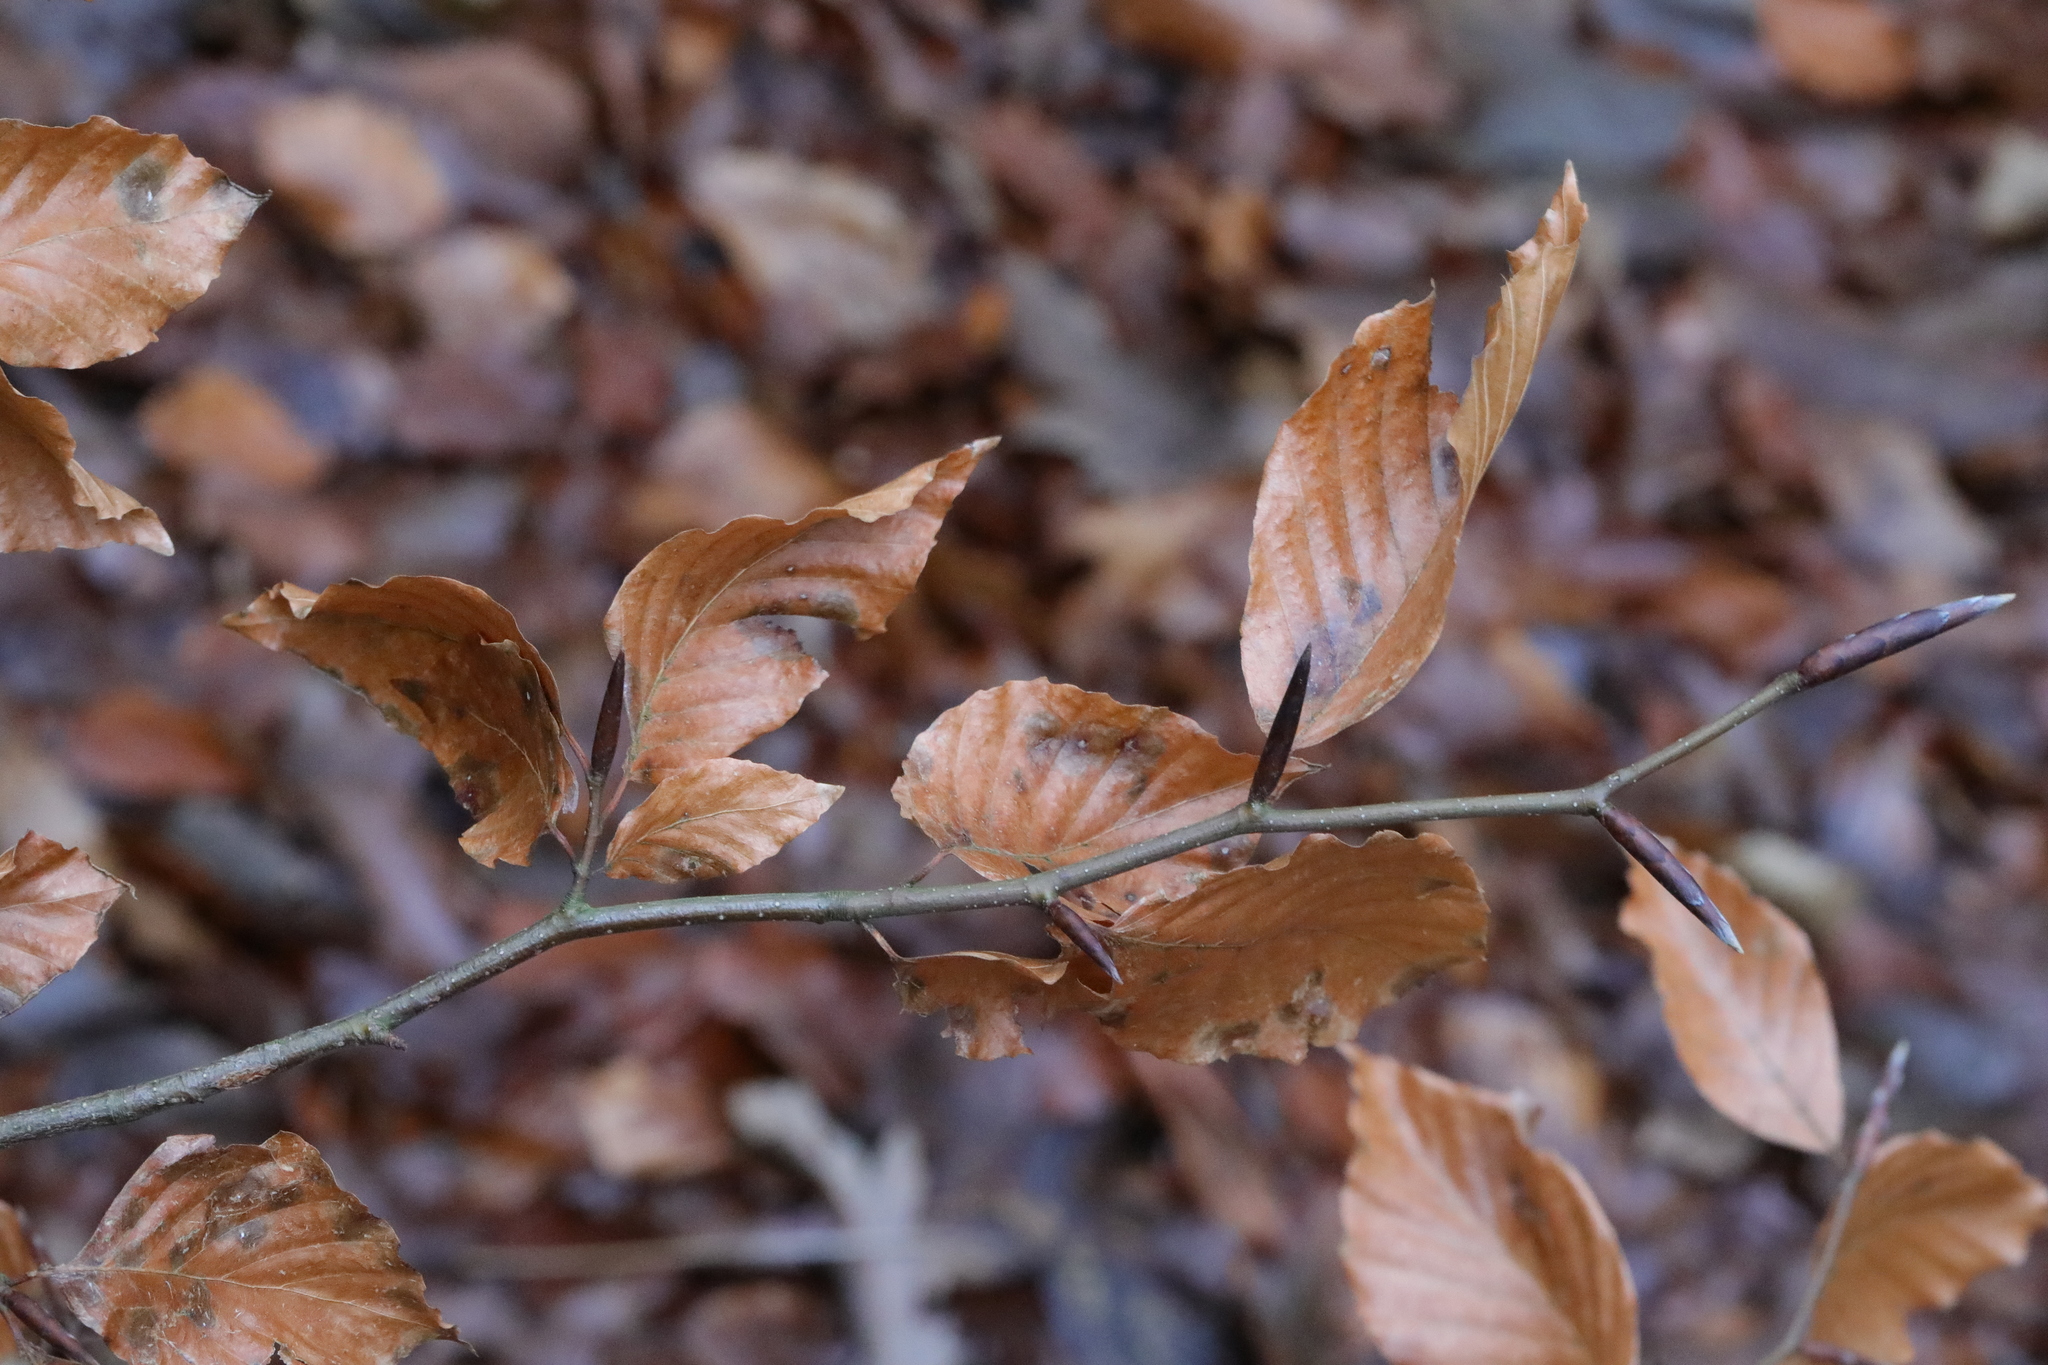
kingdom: Plantae
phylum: Tracheophyta
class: Magnoliopsida
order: Fagales
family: Fagaceae
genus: Fagus
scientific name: Fagus sylvatica
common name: Beech
